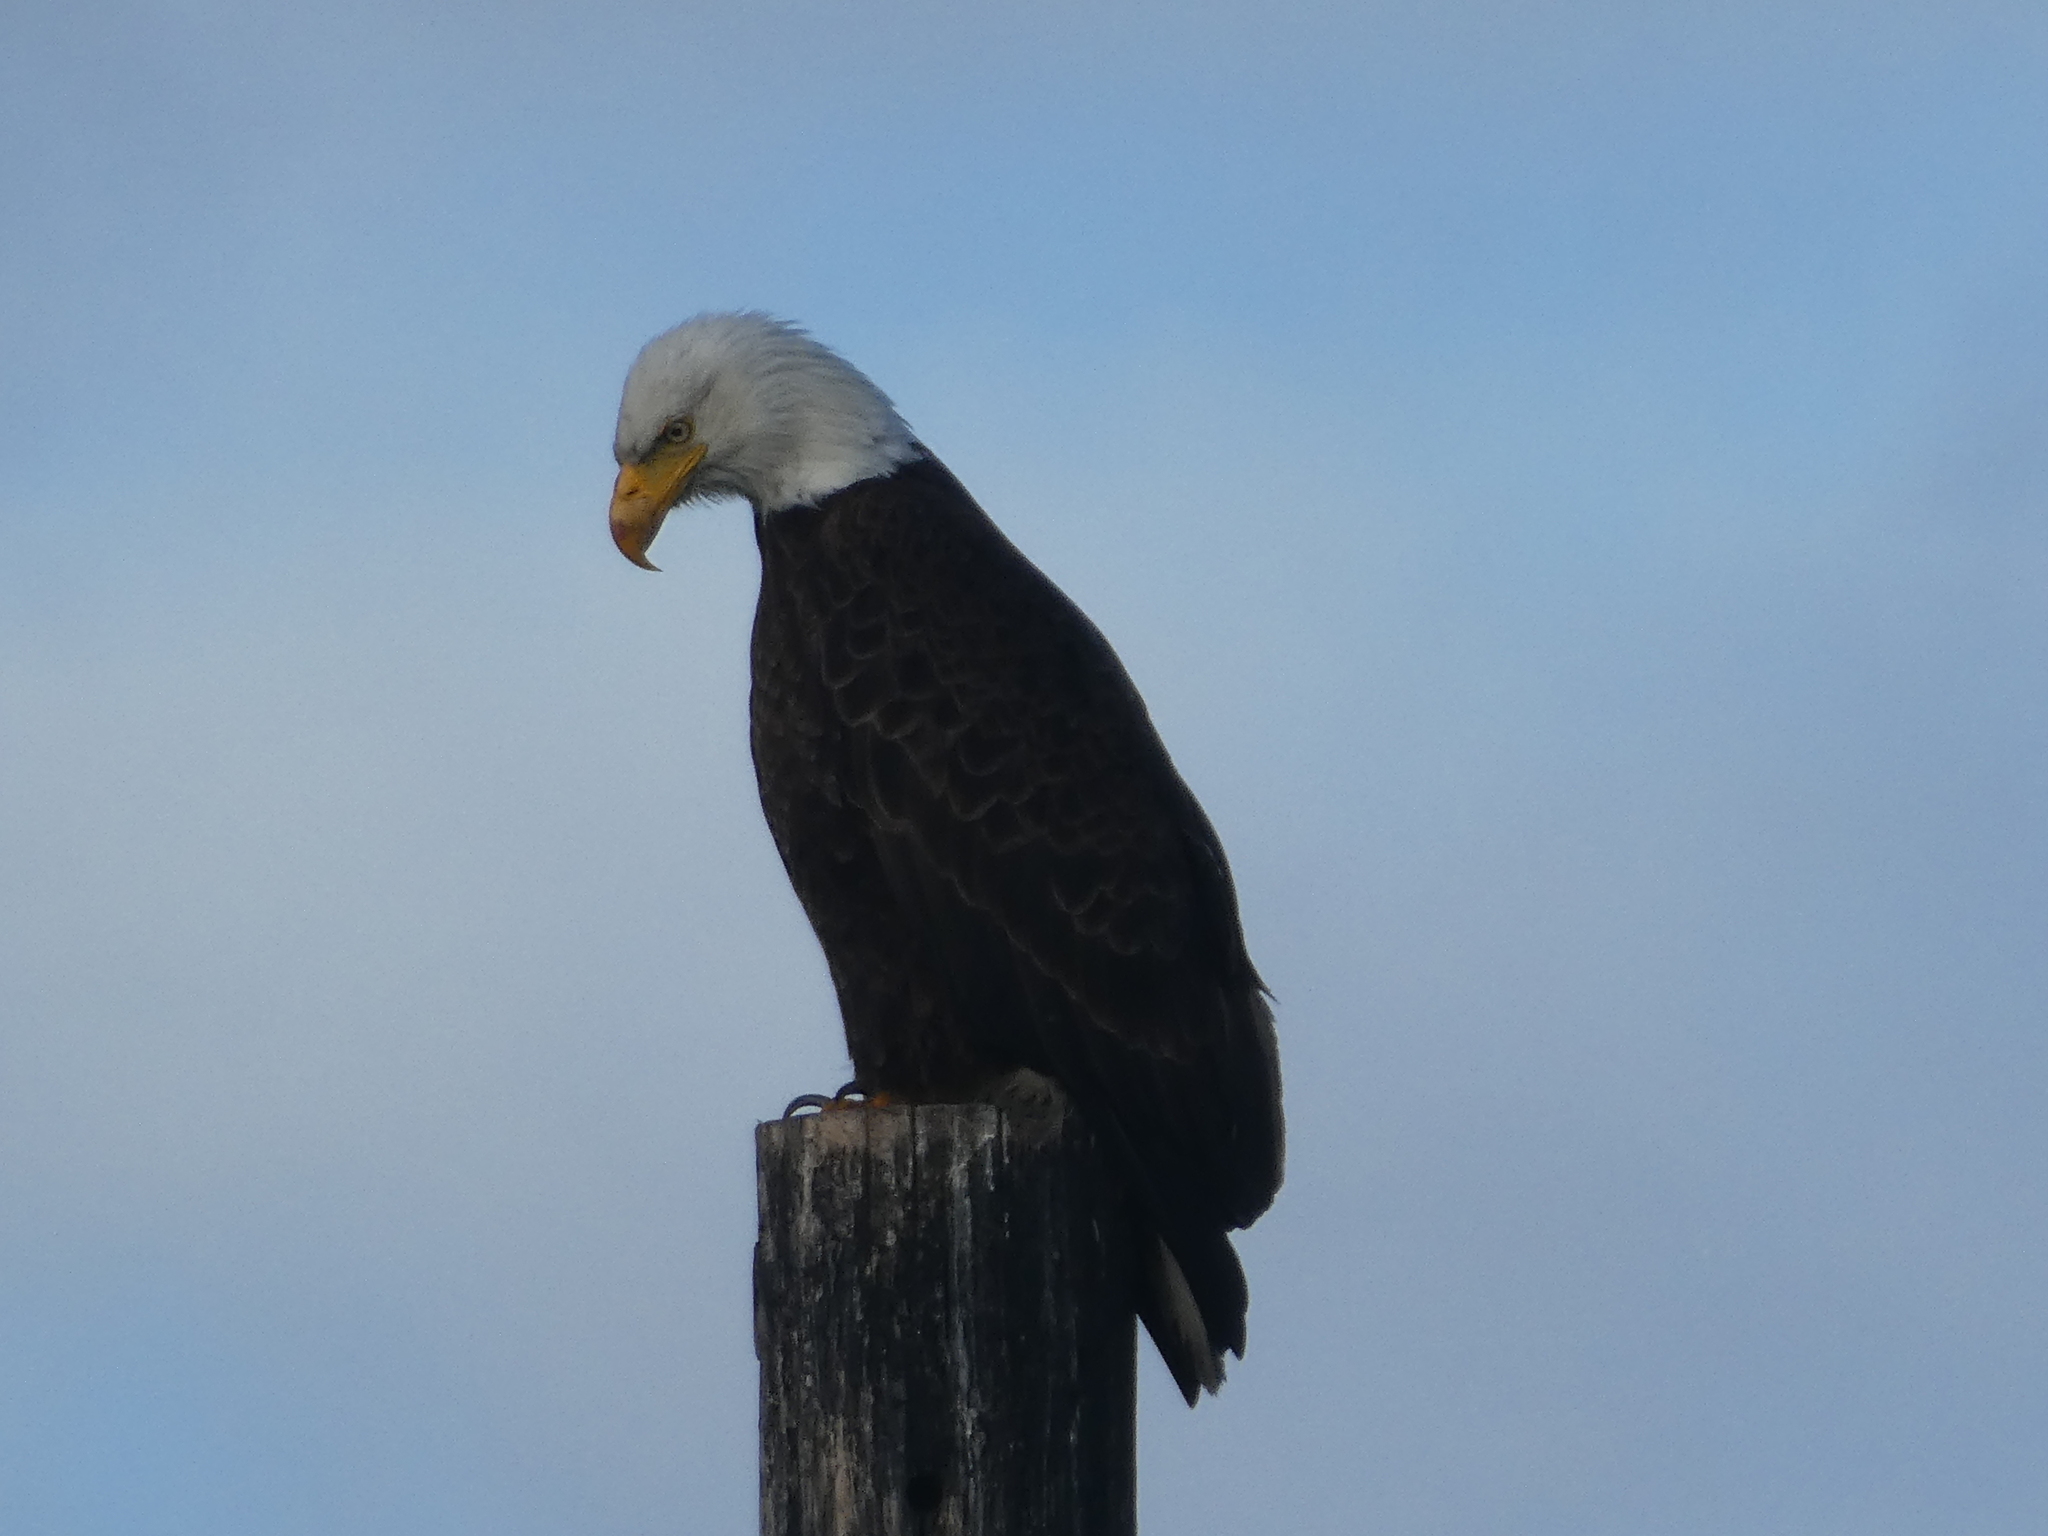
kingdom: Animalia
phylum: Chordata
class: Aves
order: Accipitriformes
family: Accipitridae
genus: Haliaeetus
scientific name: Haliaeetus leucocephalus
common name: Bald eagle
